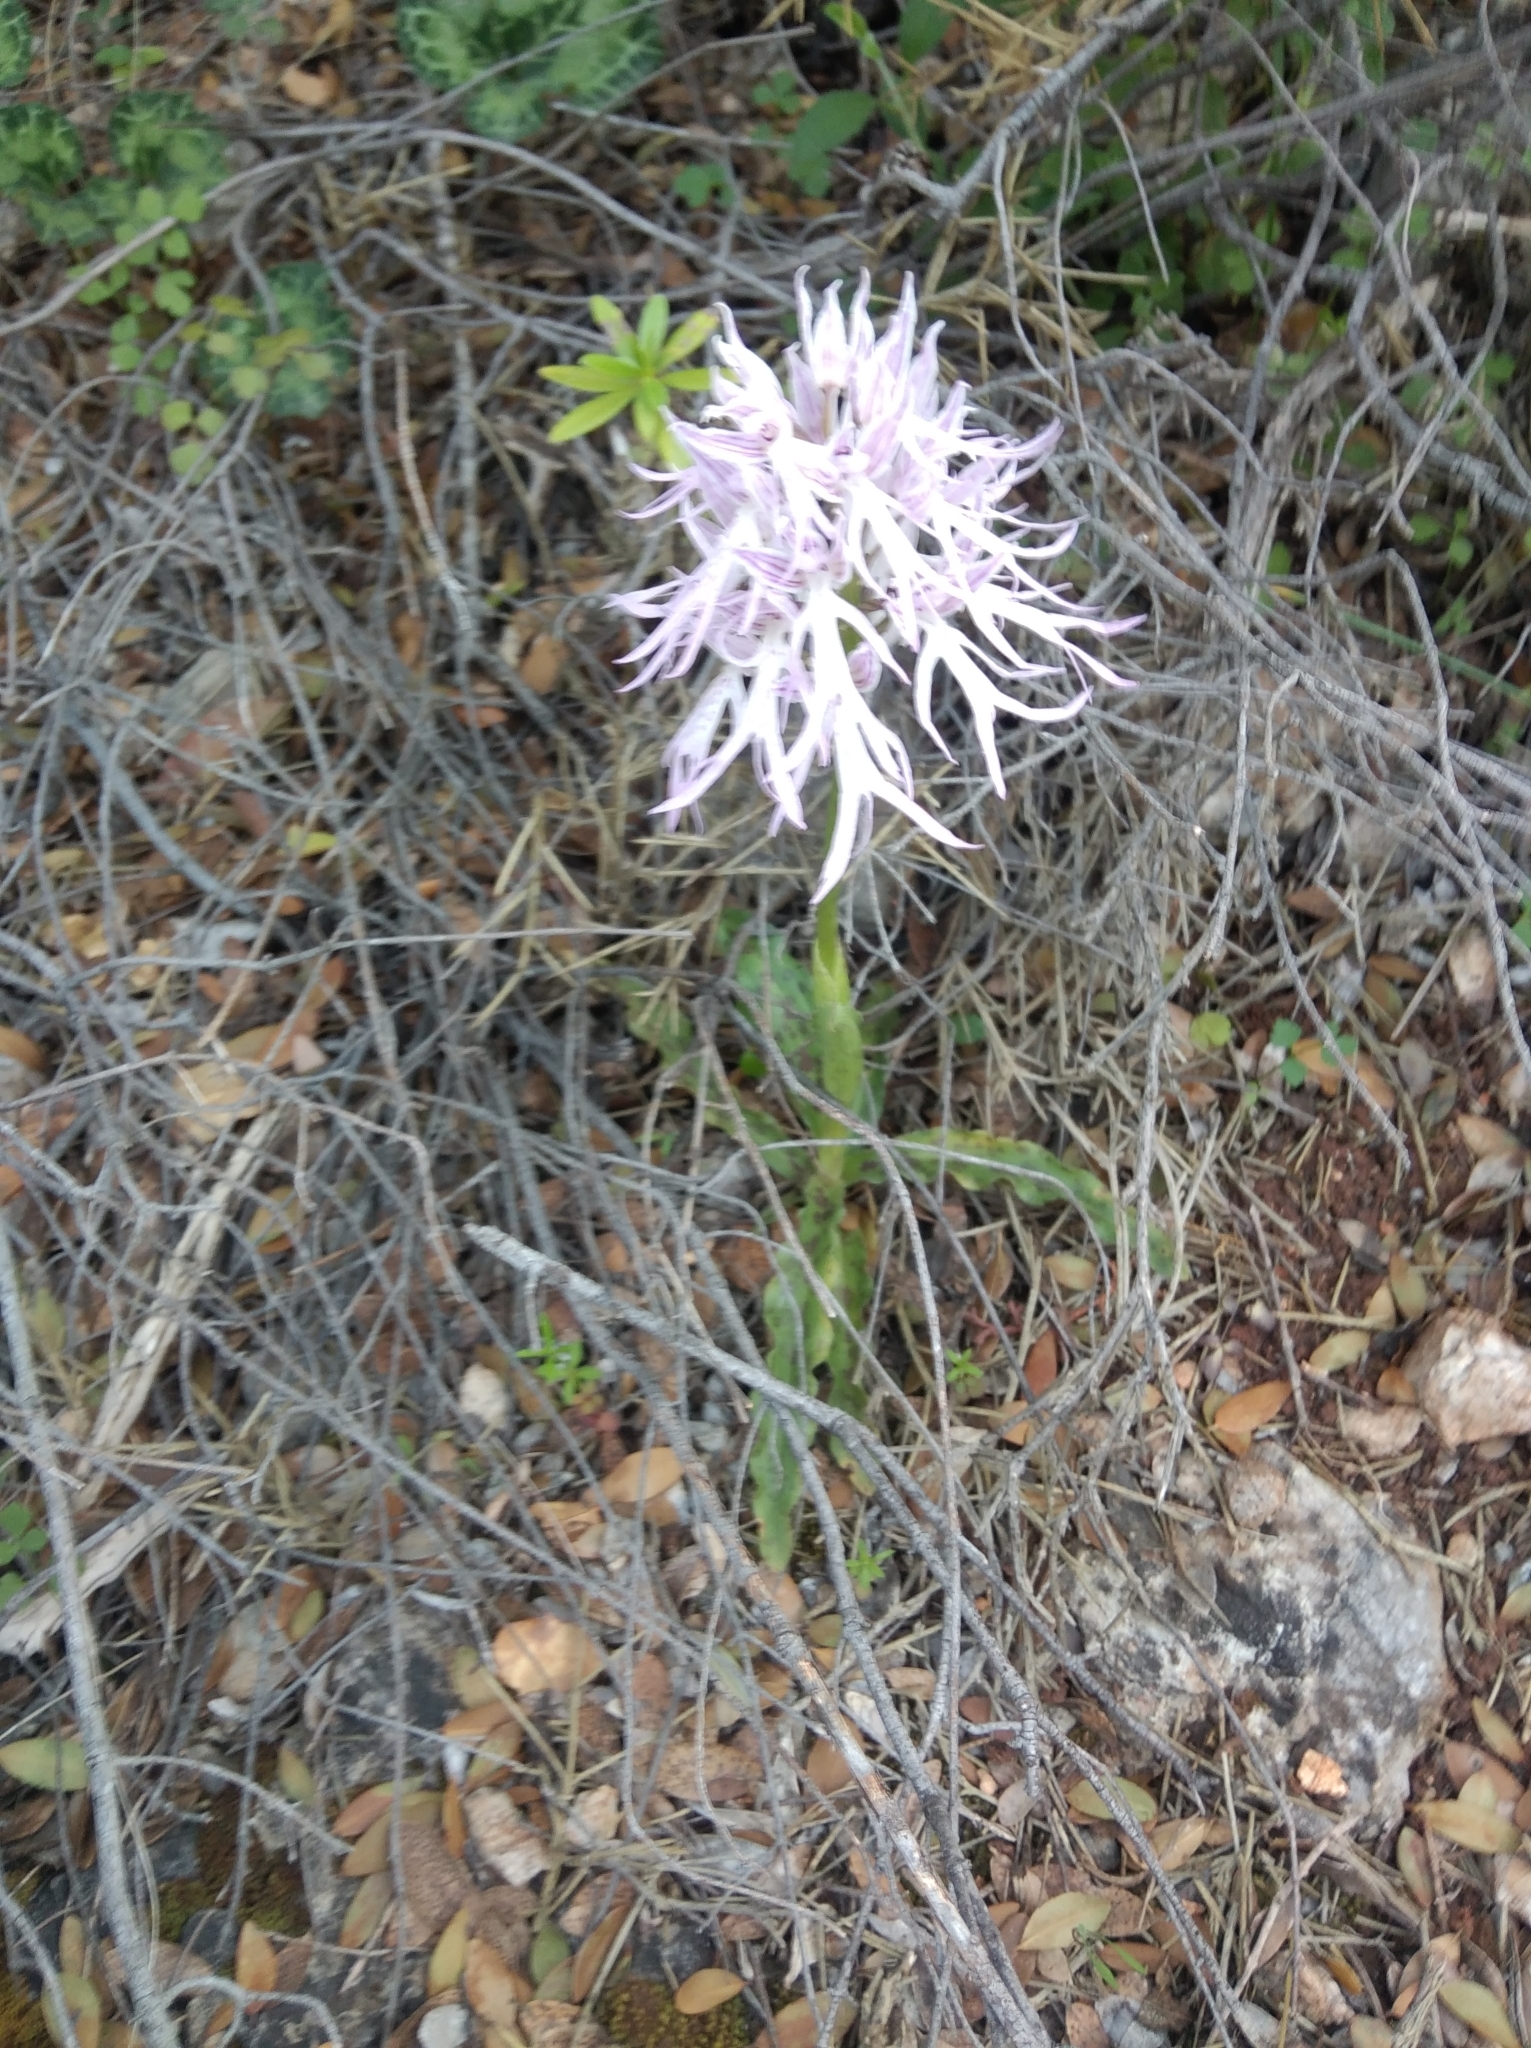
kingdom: Plantae
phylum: Tracheophyta
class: Liliopsida
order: Asparagales
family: Orchidaceae
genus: Orchis
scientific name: Orchis italica
